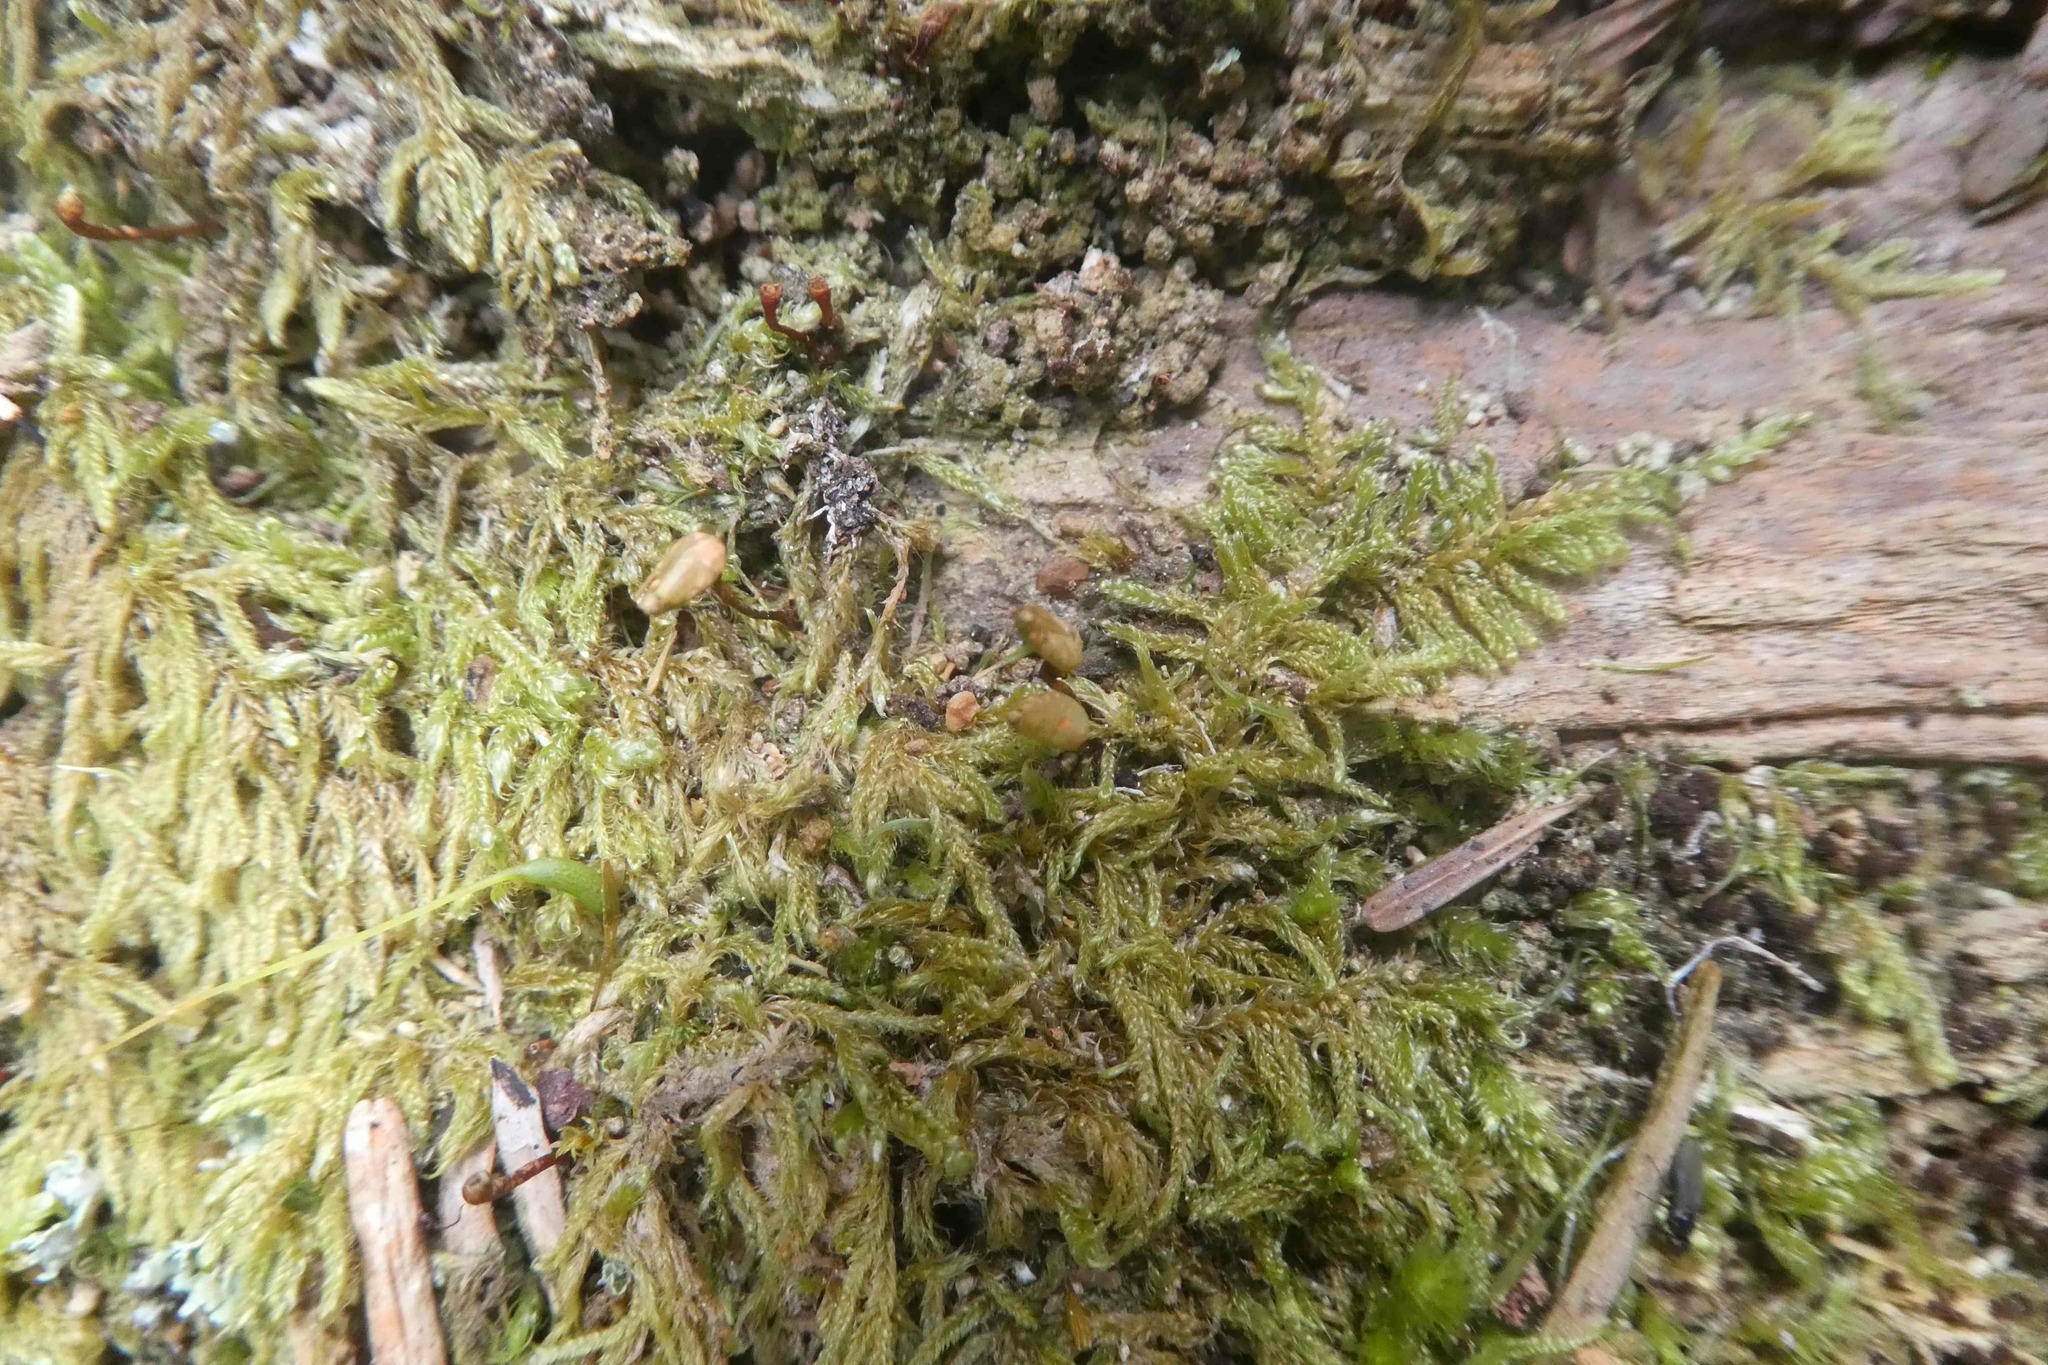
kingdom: Plantae
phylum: Bryophyta
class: Bryopsida
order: Buxbaumiales
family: Buxbaumiaceae
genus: Buxbaumia
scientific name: Buxbaumia viridis
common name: Green shield-moss
